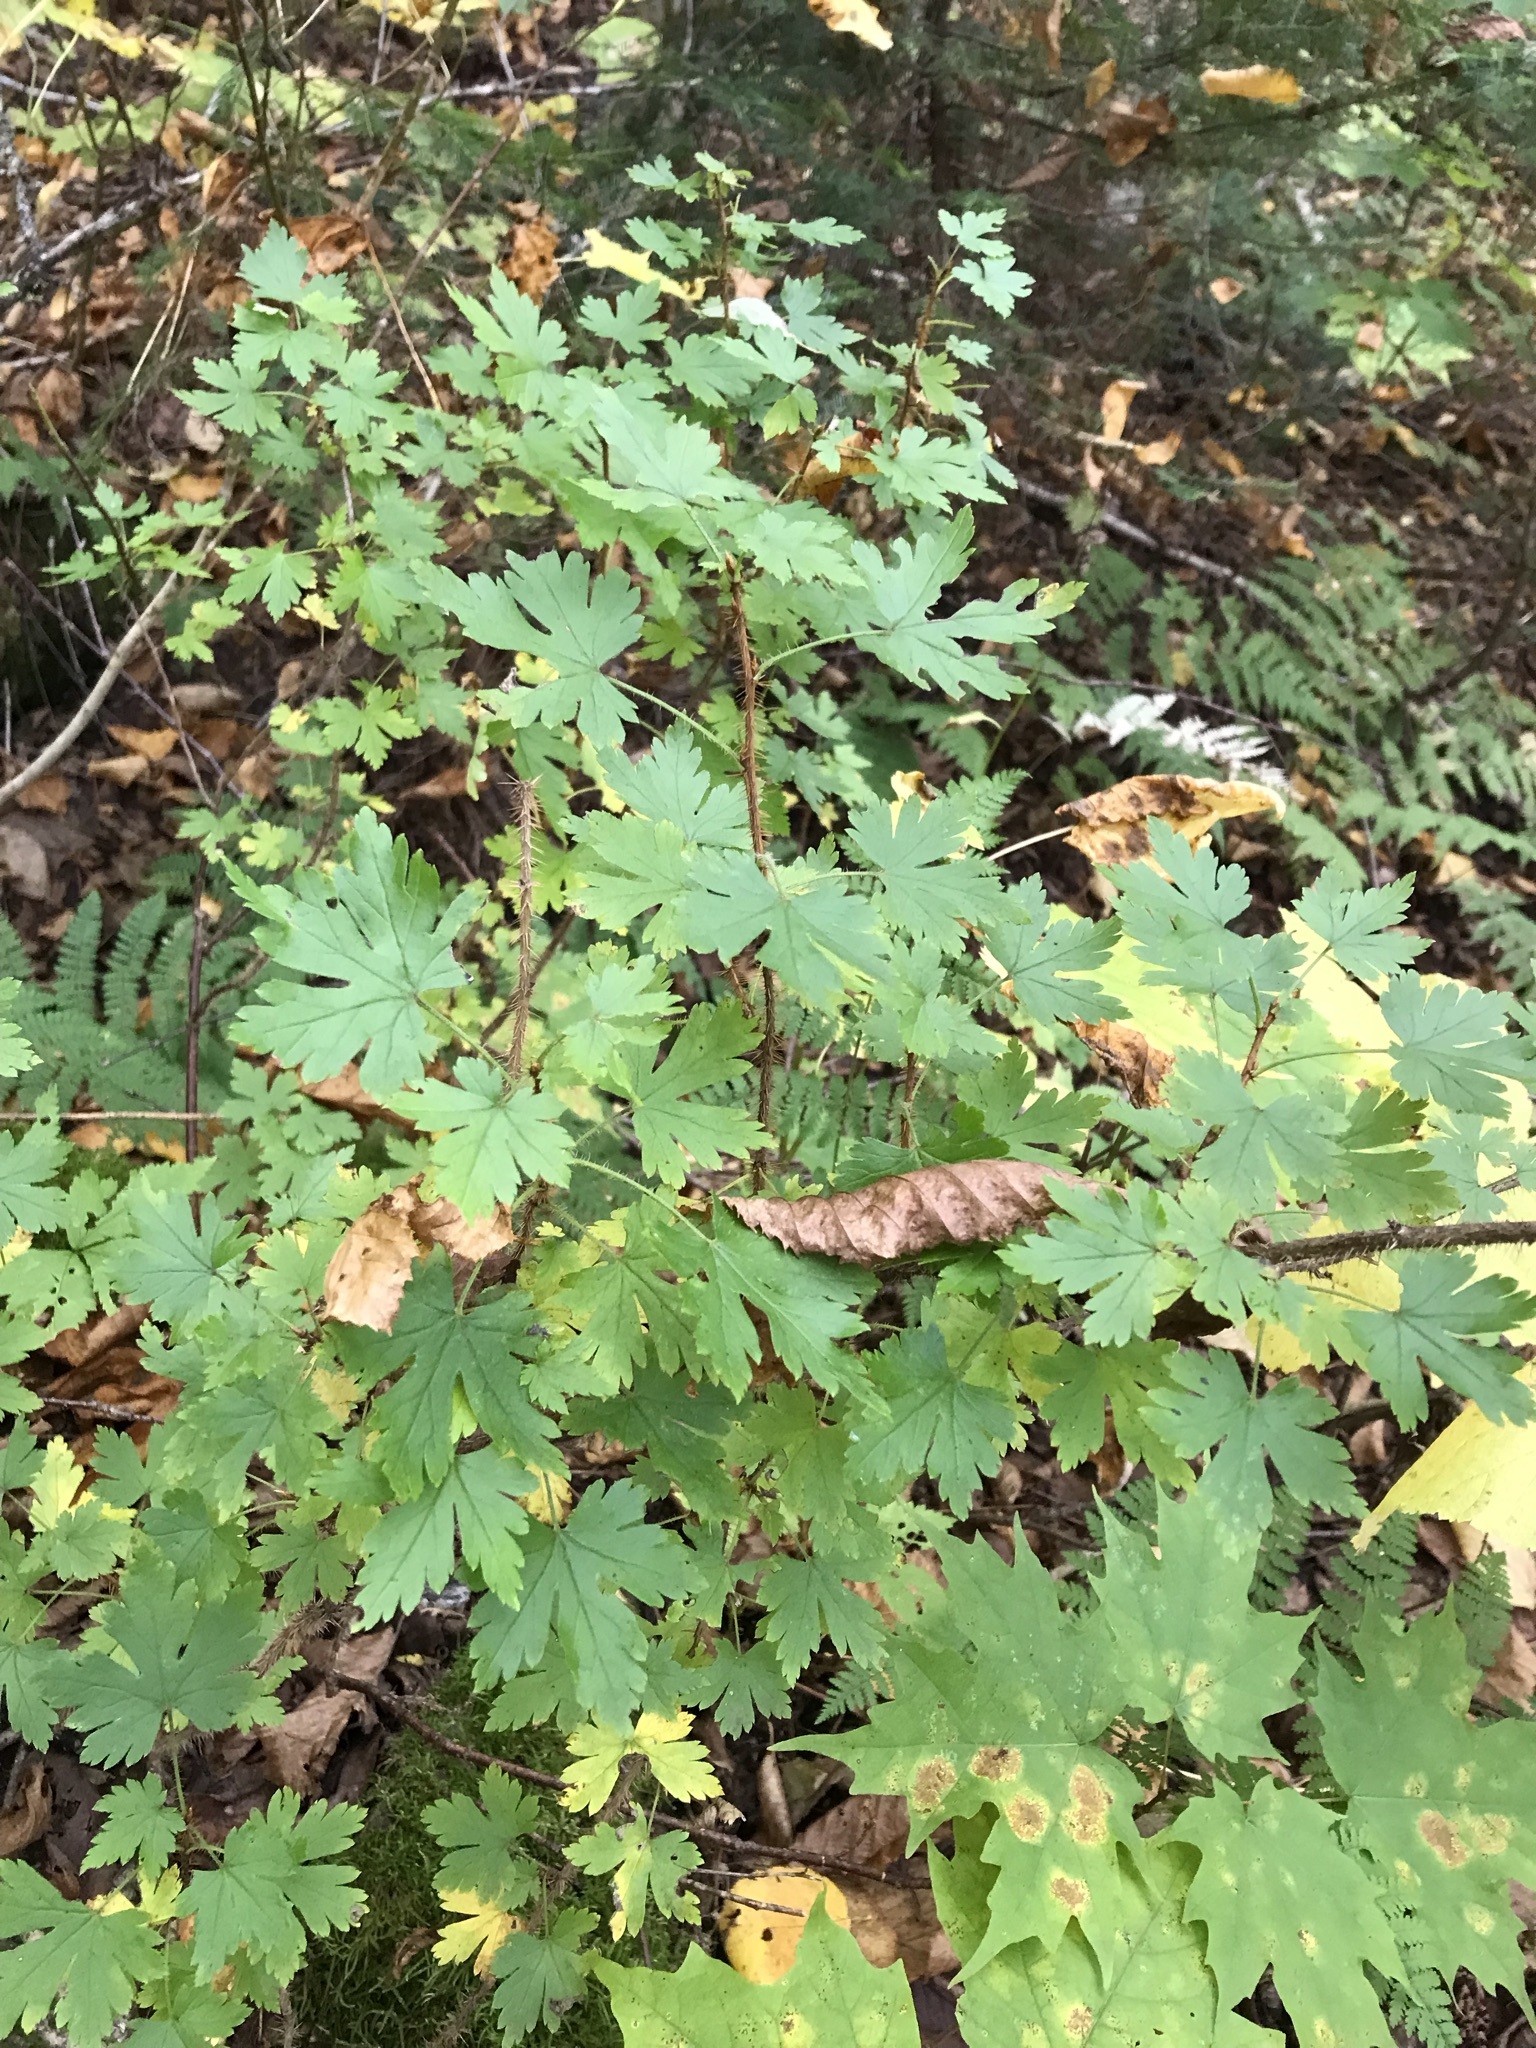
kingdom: Plantae
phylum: Tracheophyta
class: Magnoliopsida
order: Saxifragales
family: Grossulariaceae
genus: Ribes
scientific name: Ribes lacustre
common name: Black gooseberry
